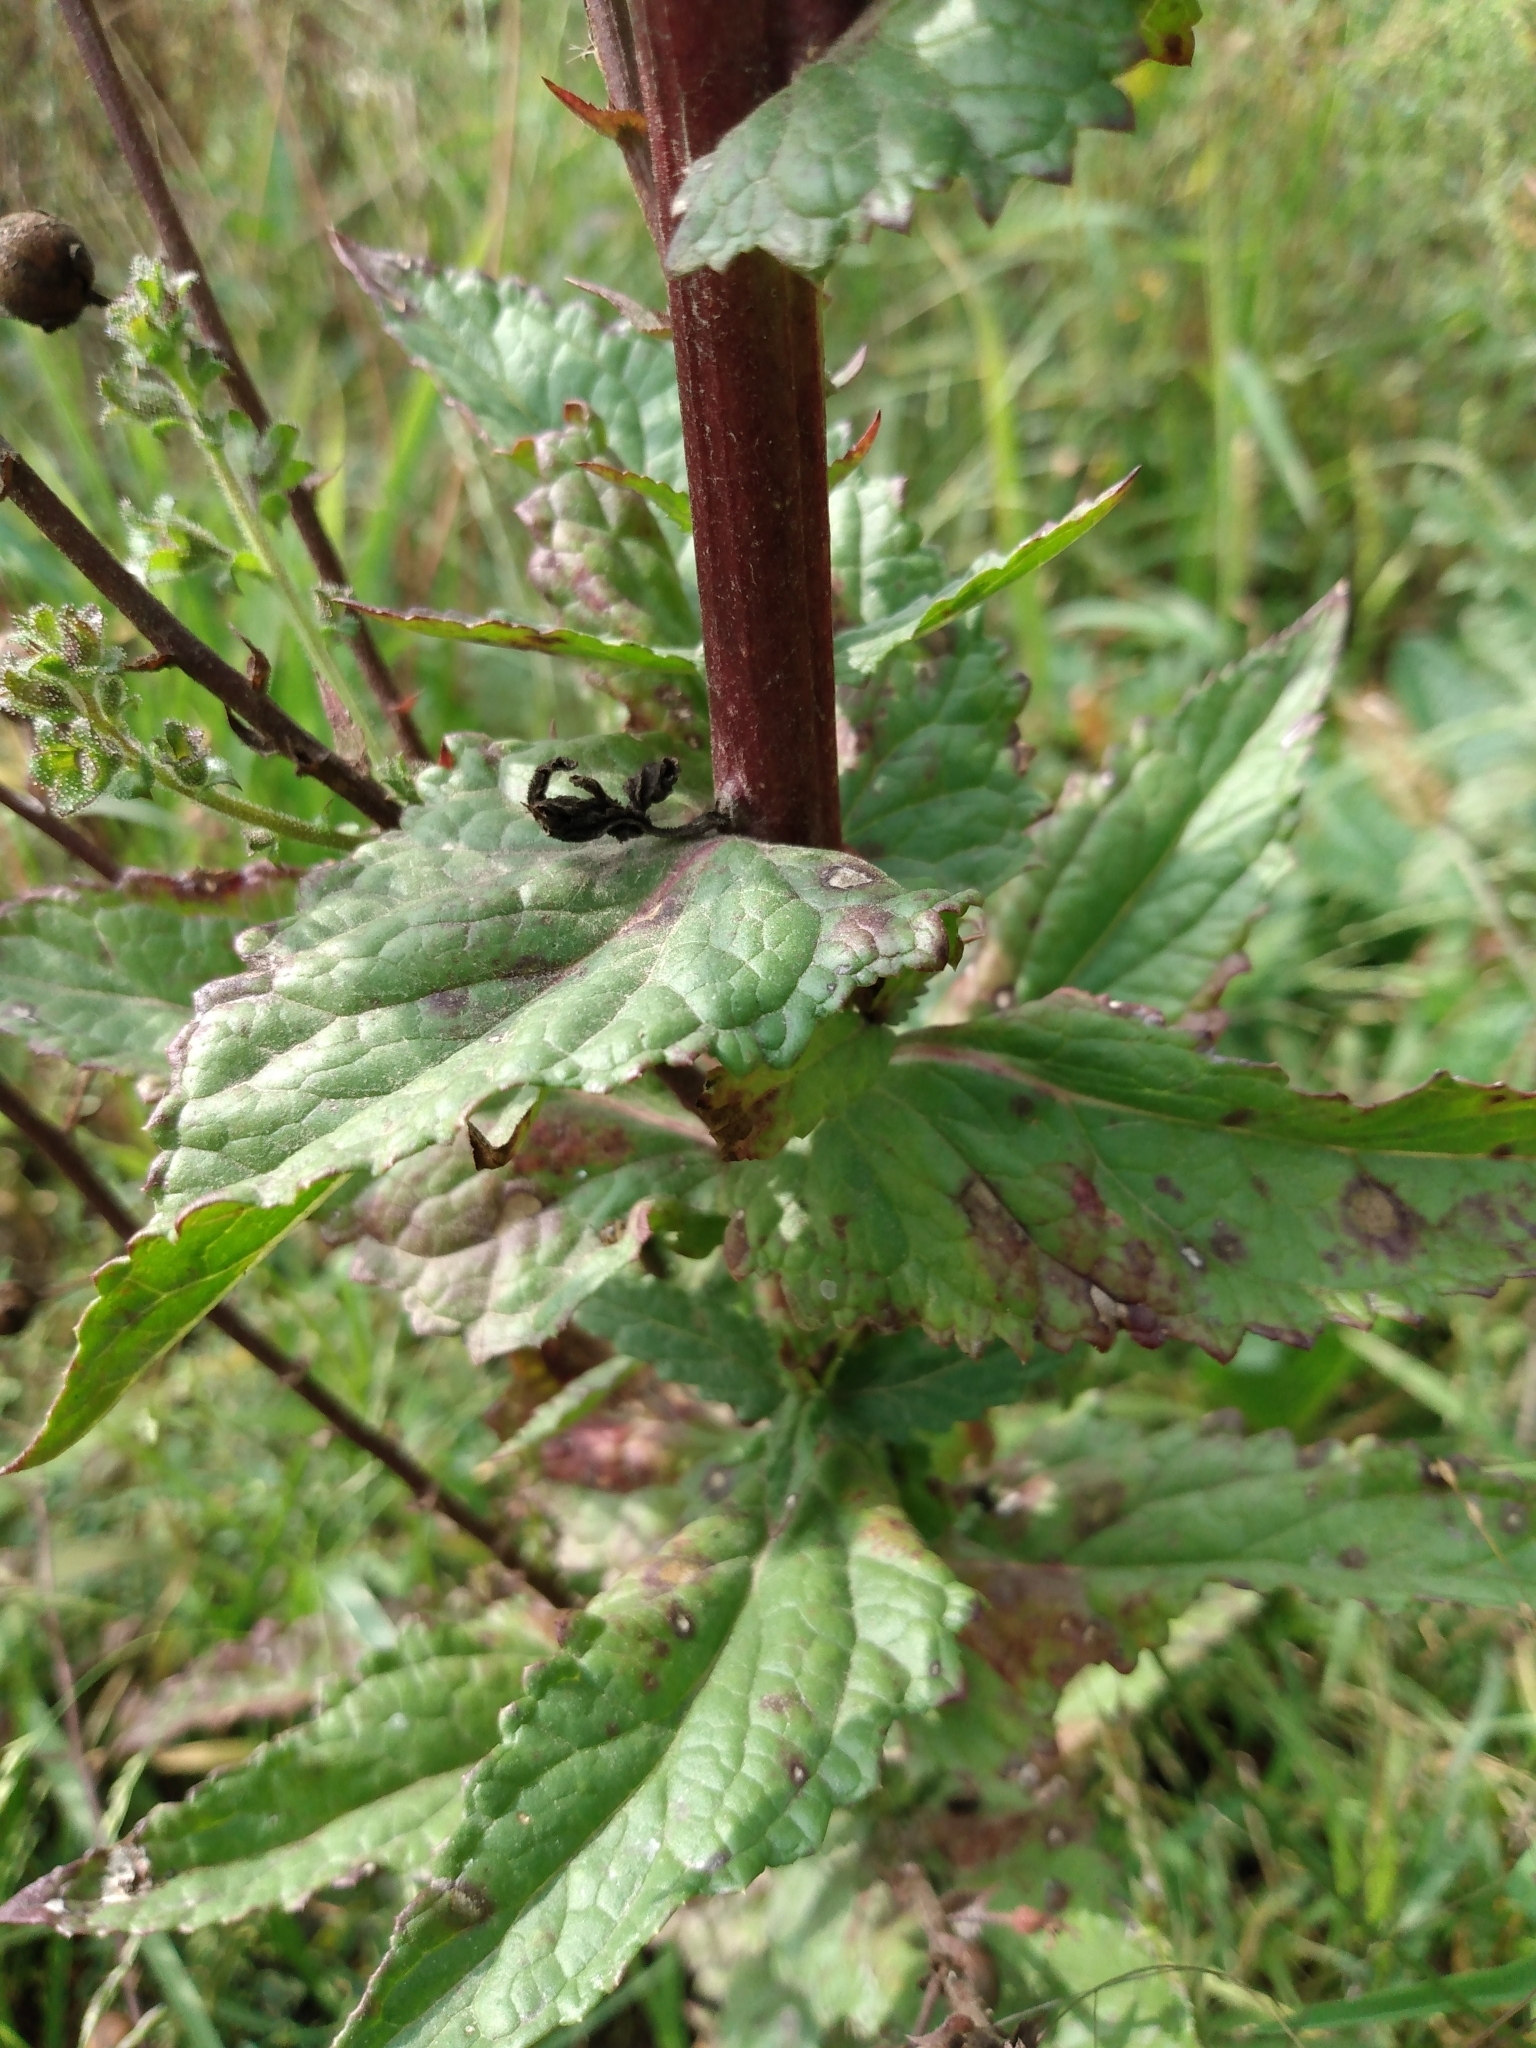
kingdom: Plantae
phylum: Tracheophyta
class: Magnoliopsida
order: Lamiales
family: Scrophulariaceae
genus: Verbascum
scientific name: Verbascum blattaria
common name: Moth mullein
